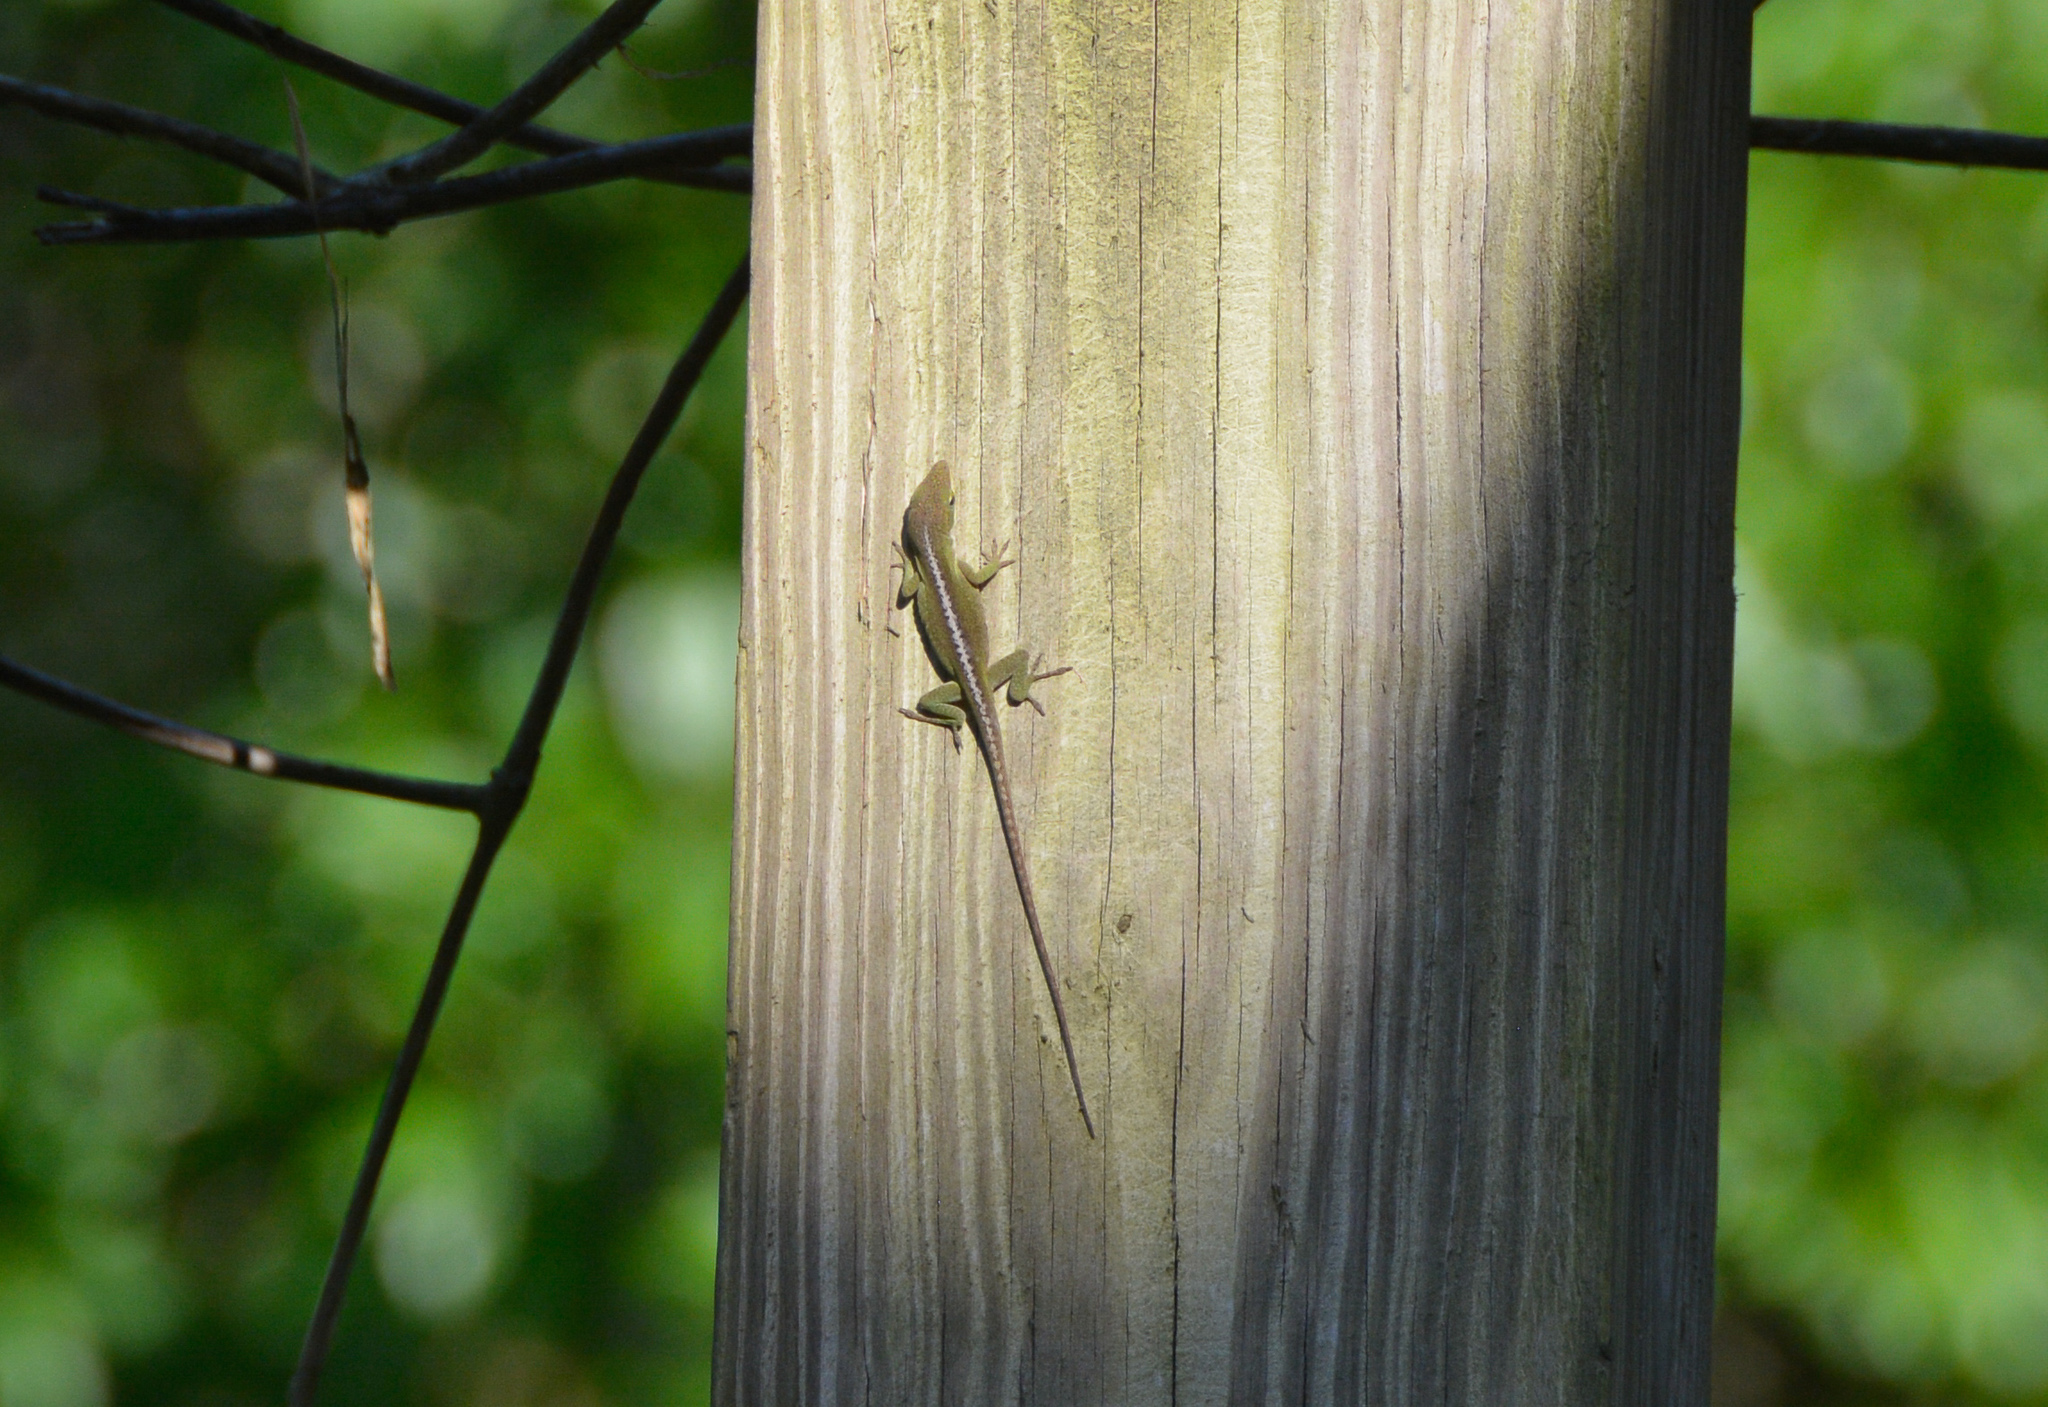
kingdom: Animalia
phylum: Chordata
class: Squamata
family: Dactyloidae
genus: Anolis
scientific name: Anolis carolinensis
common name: Green anole
